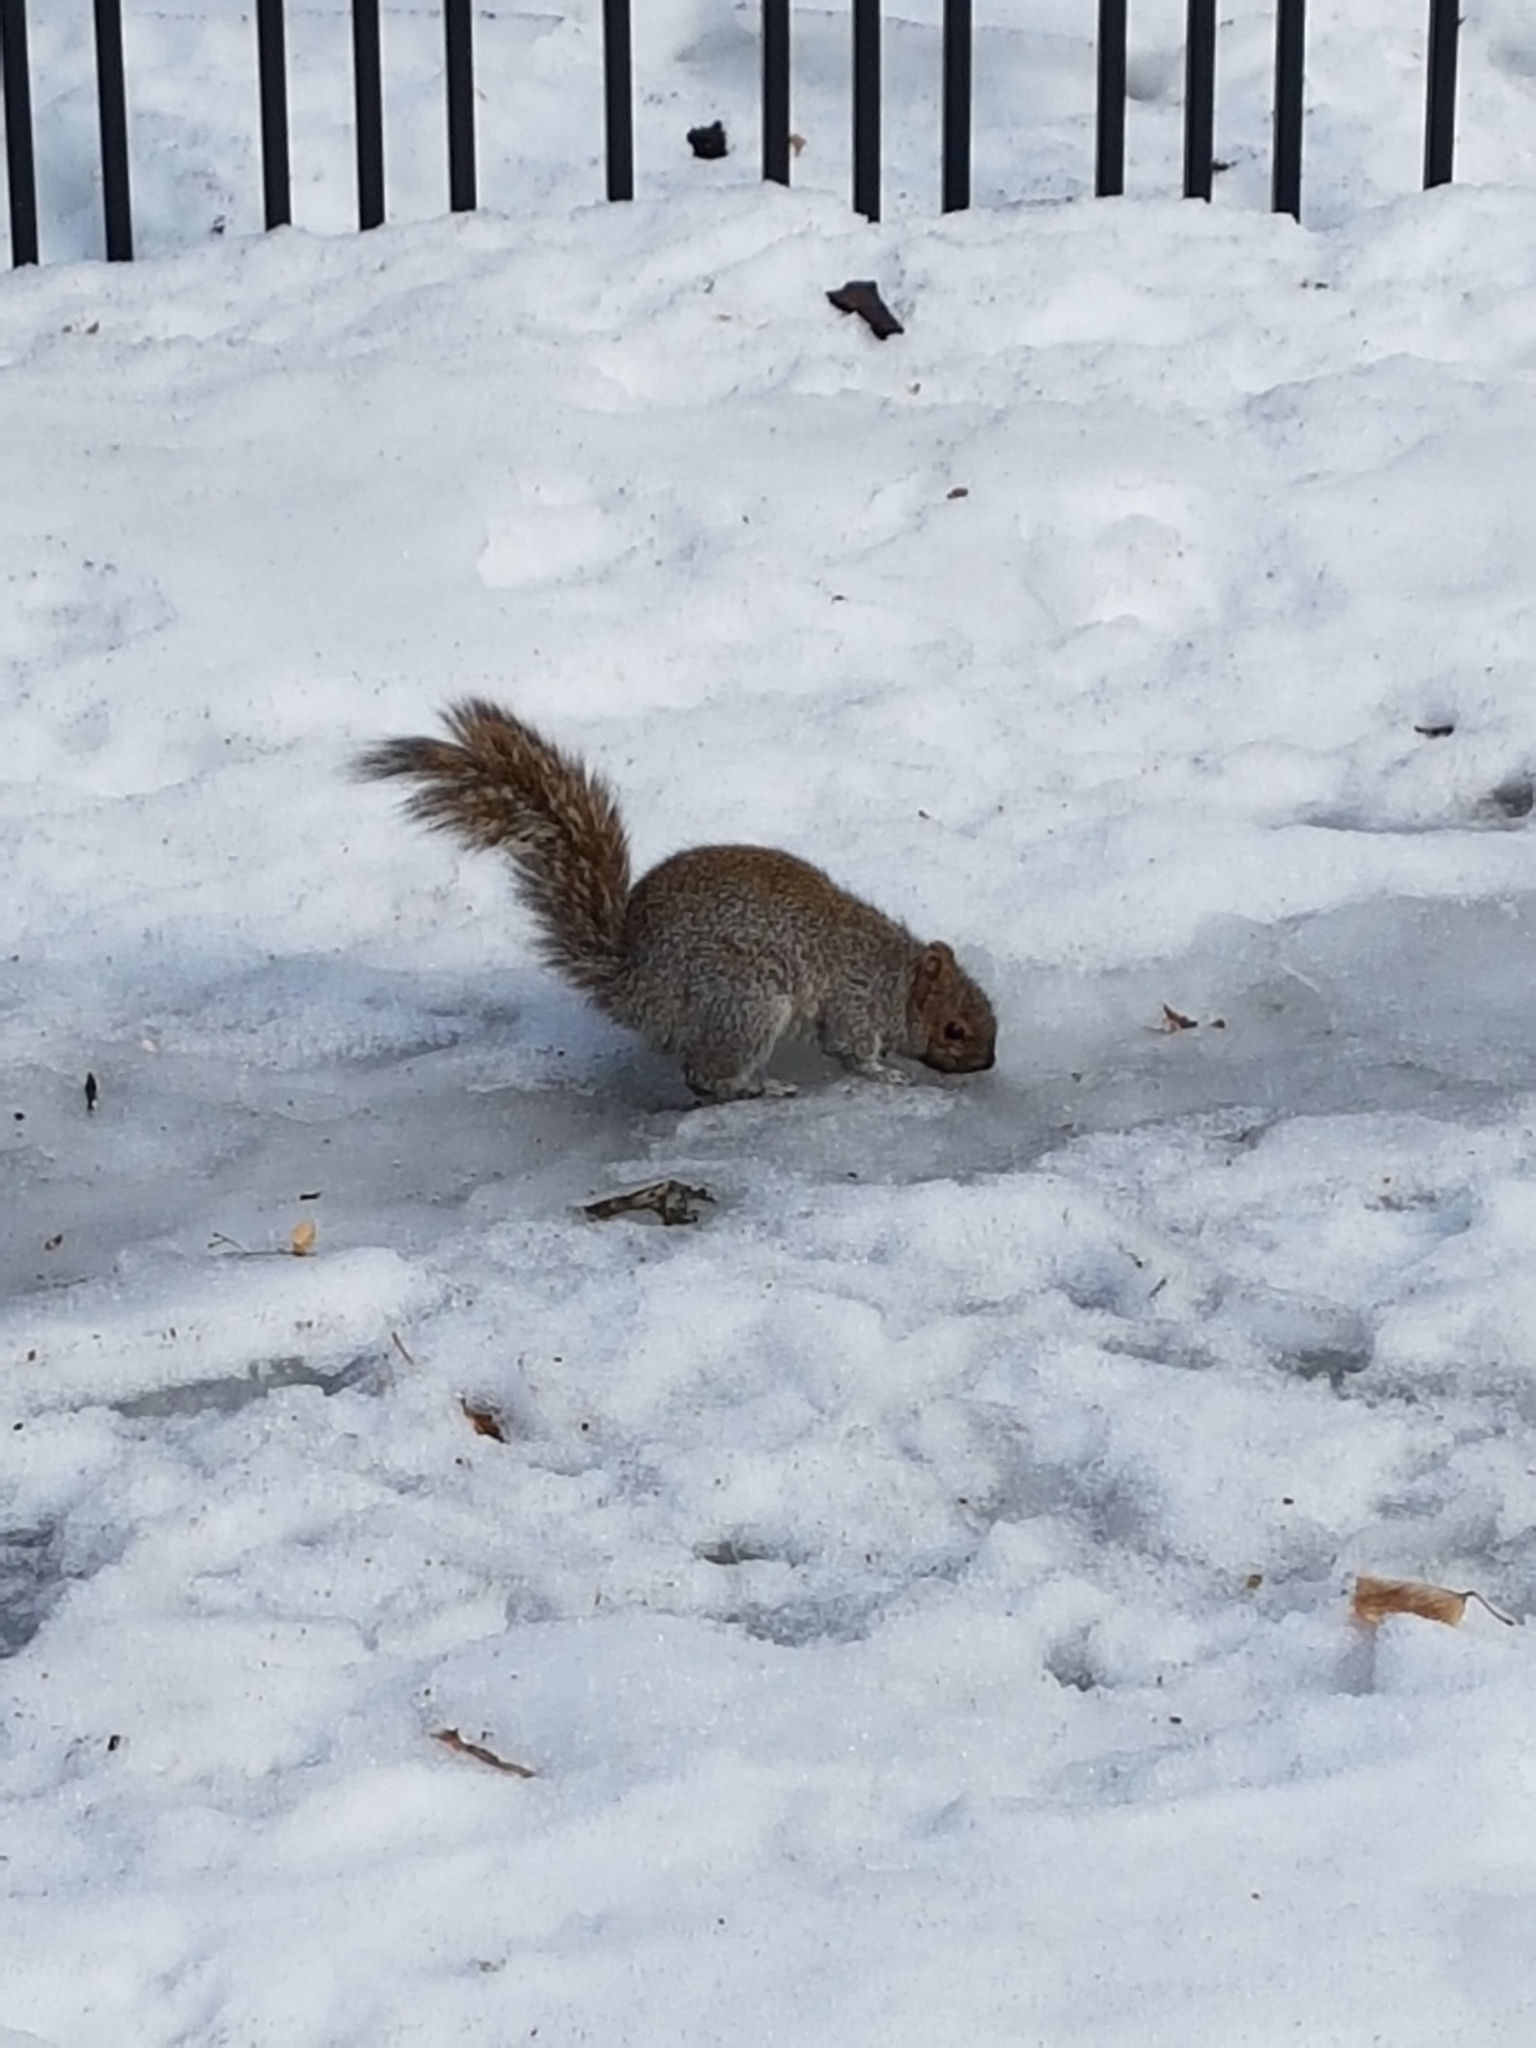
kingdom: Animalia
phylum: Chordata
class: Mammalia
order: Rodentia
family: Sciuridae
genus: Sciurus
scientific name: Sciurus carolinensis
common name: Eastern gray squirrel
